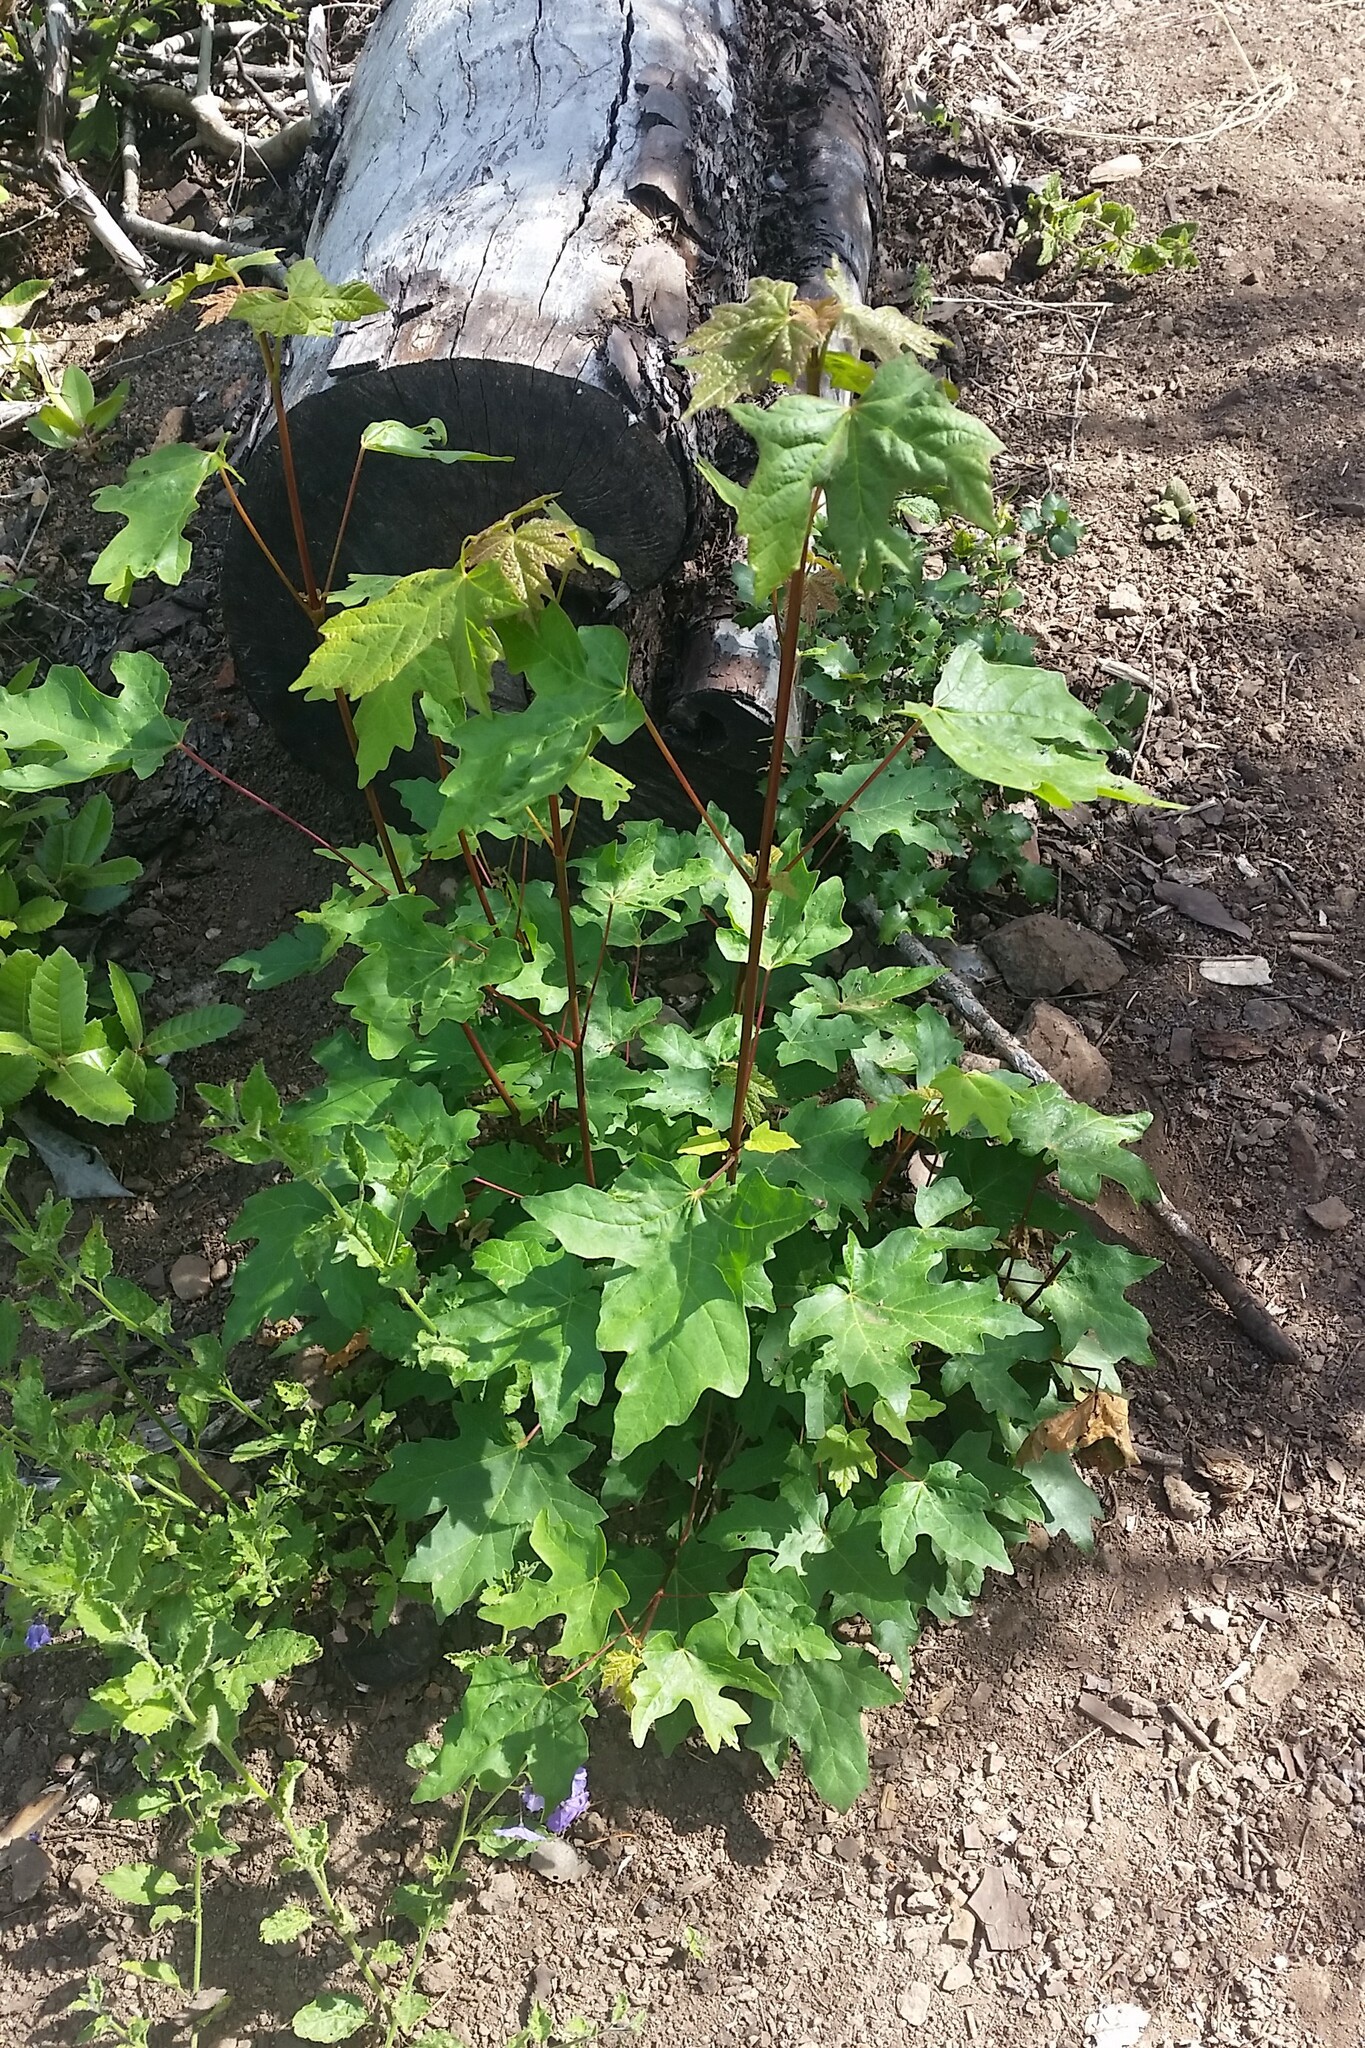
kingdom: Plantae
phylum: Tracheophyta
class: Magnoliopsida
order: Sapindales
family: Sapindaceae
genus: Acer
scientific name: Acer macrophyllum
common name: Oregon maple
